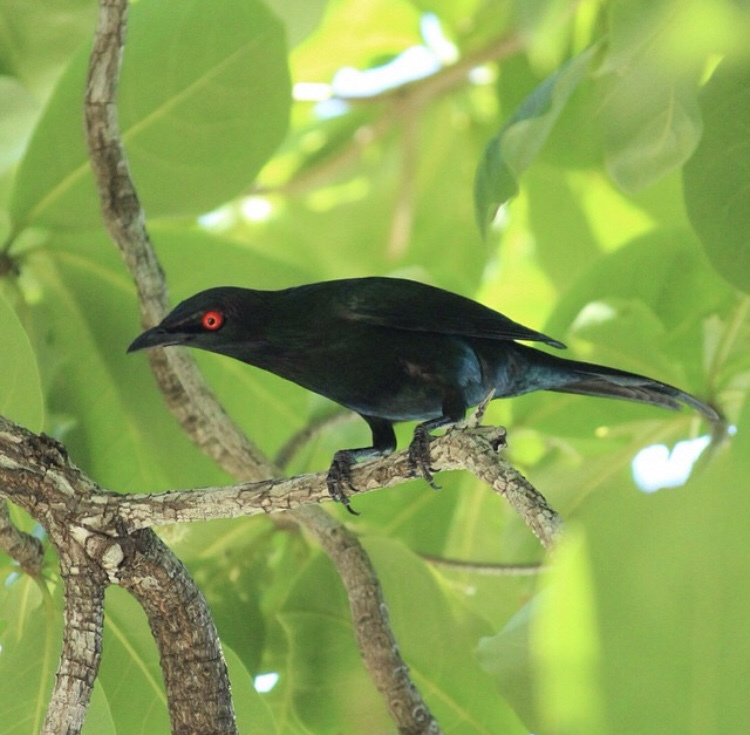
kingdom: Animalia
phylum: Chordata
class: Aves
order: Passeriformes
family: Sturnidae
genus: Aplonis
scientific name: Aplonis metallica
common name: Metallic starling
